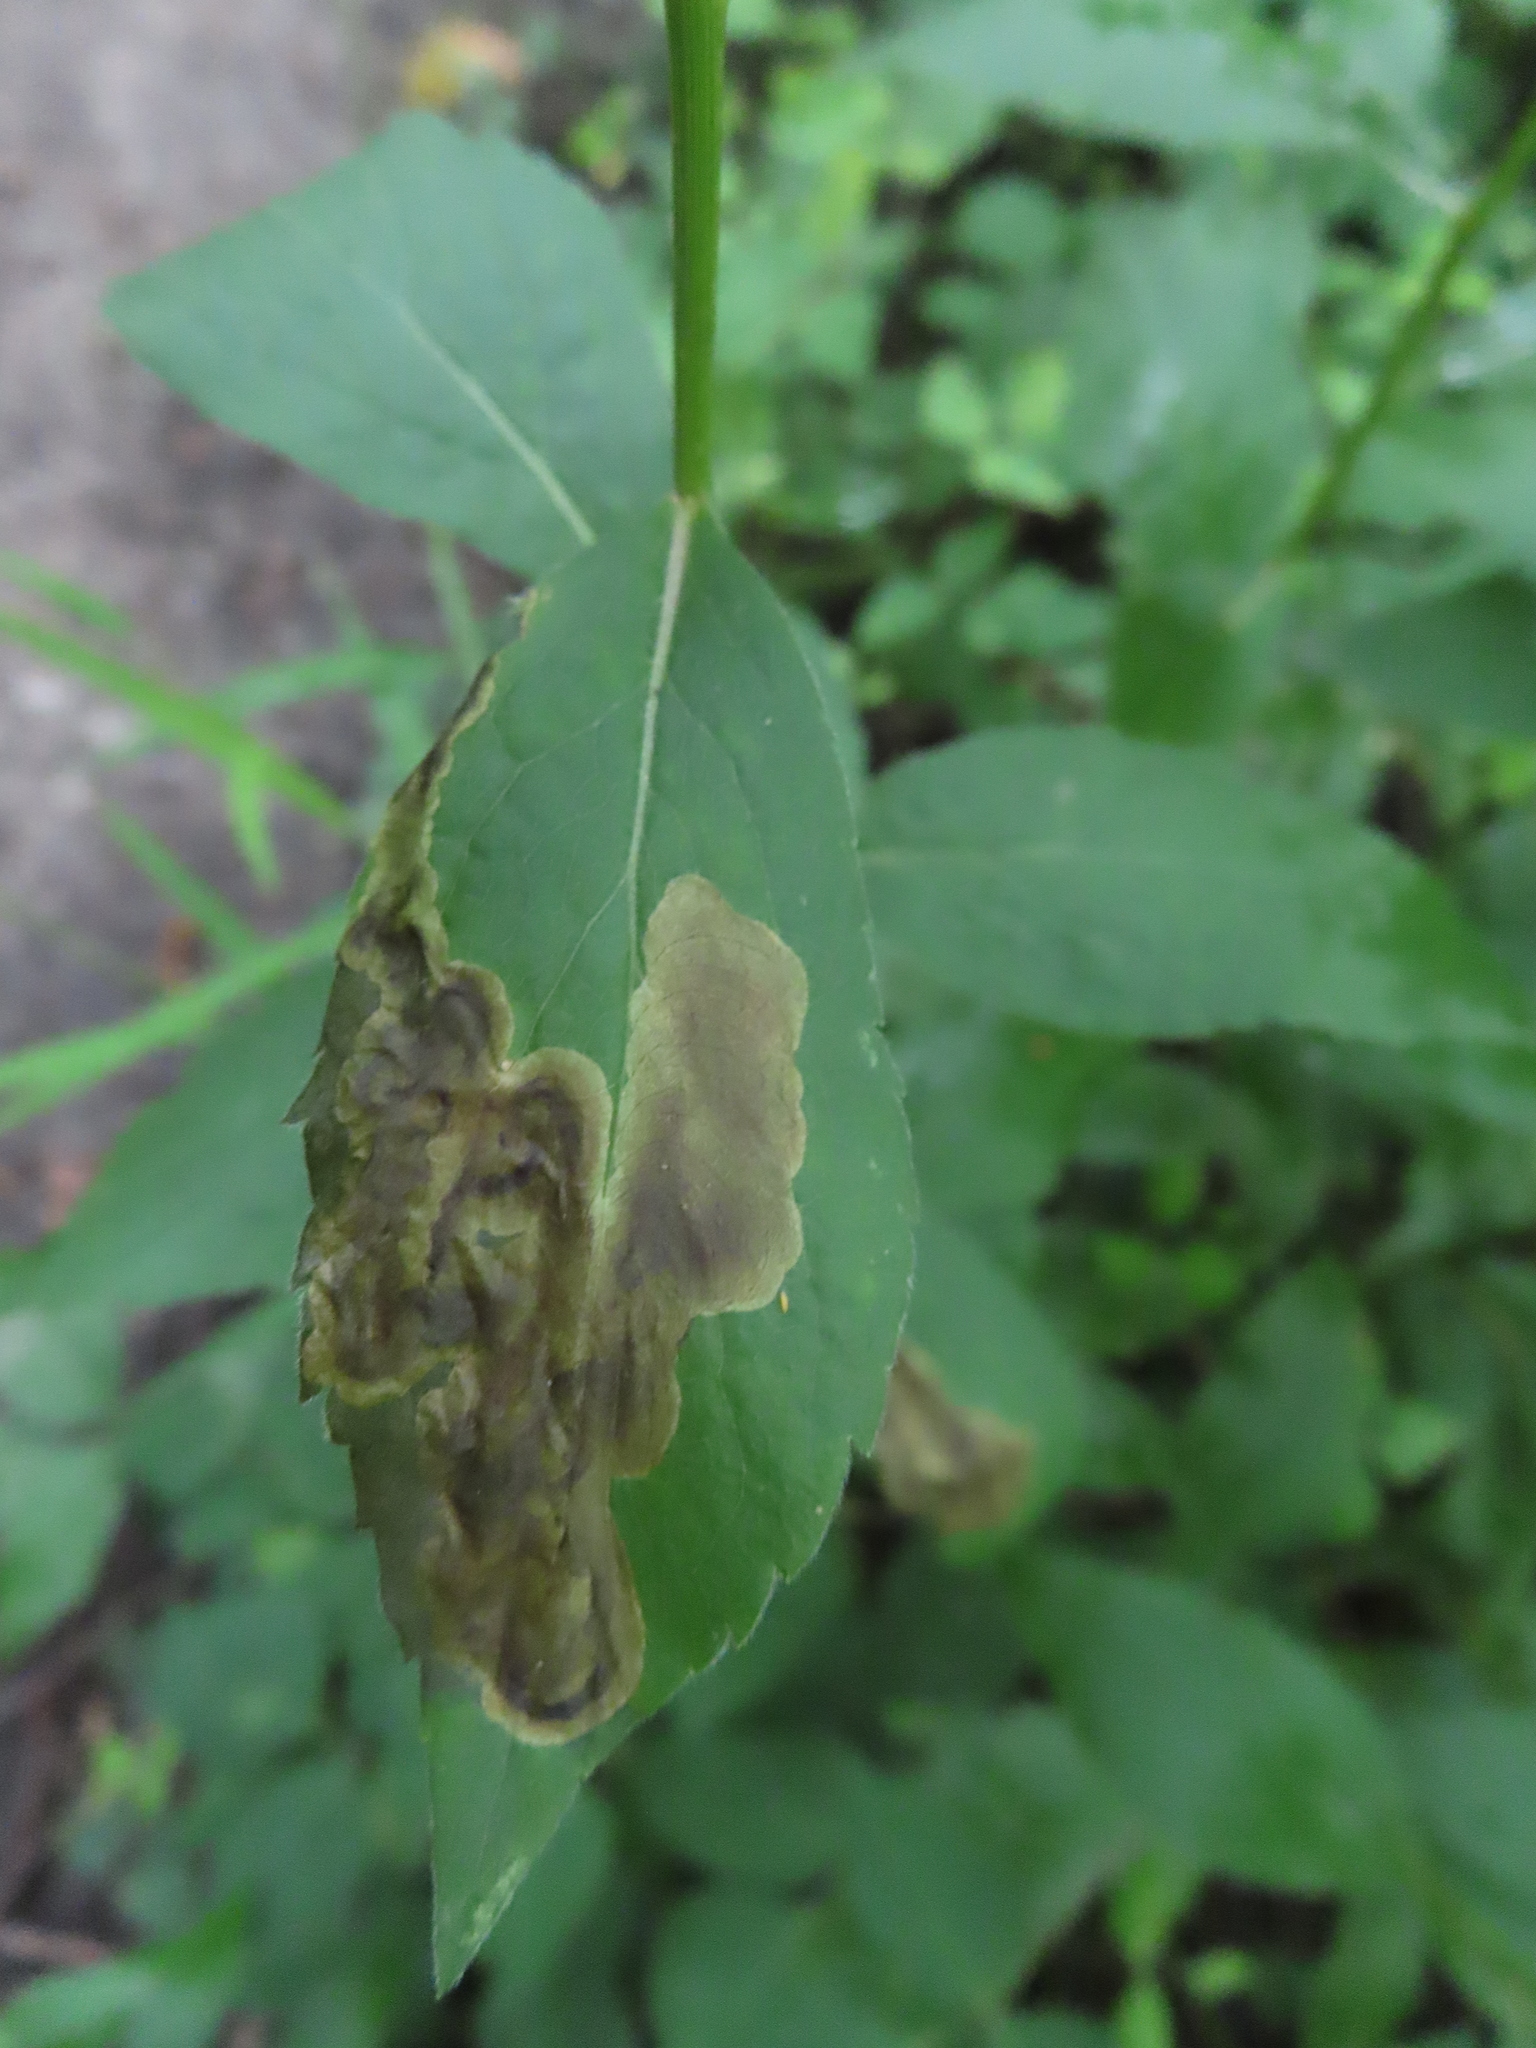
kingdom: Animalia
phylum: Arthropoda
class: Insecta
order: Diptera
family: Agromyzidae
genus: Nemorimyza
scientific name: Nemorimyza posticata
